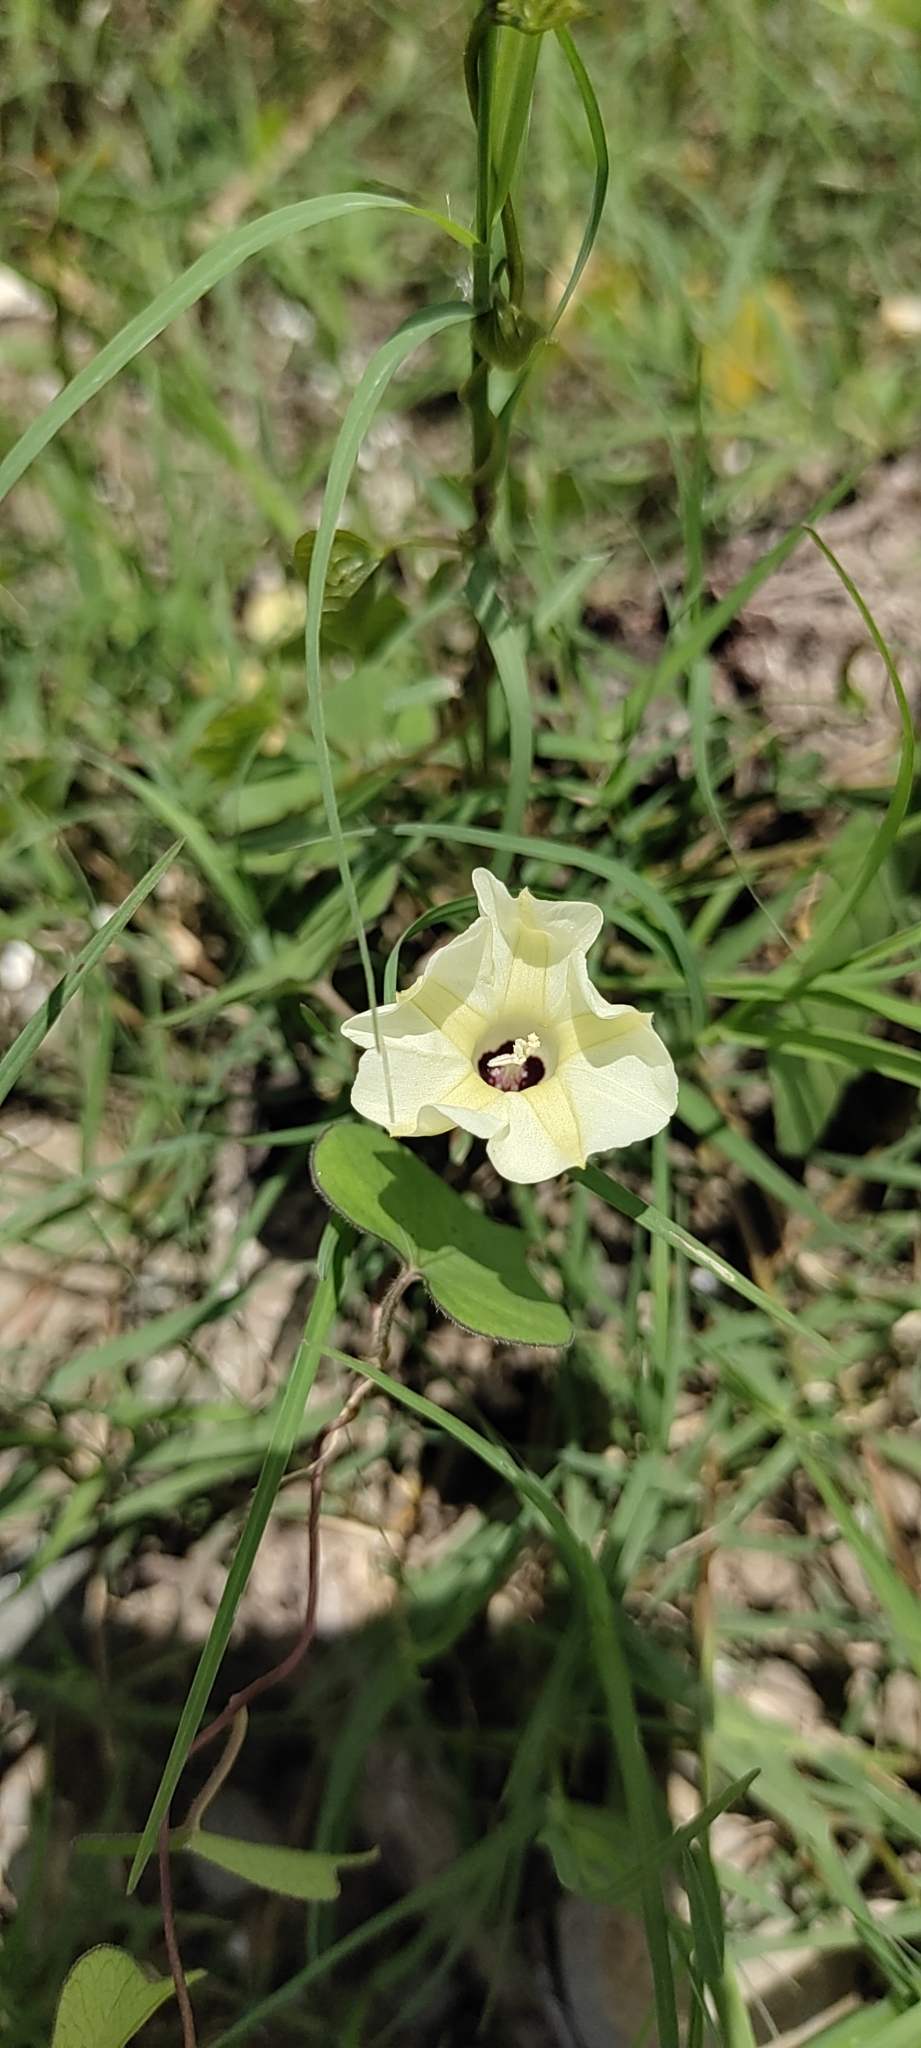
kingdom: Plantae
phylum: Tracheophyta
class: Magnoliopsida
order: Solanales
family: Convolvulaceae
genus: Ipomoea
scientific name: Ipomoea obscura
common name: Obscure morning-glory
